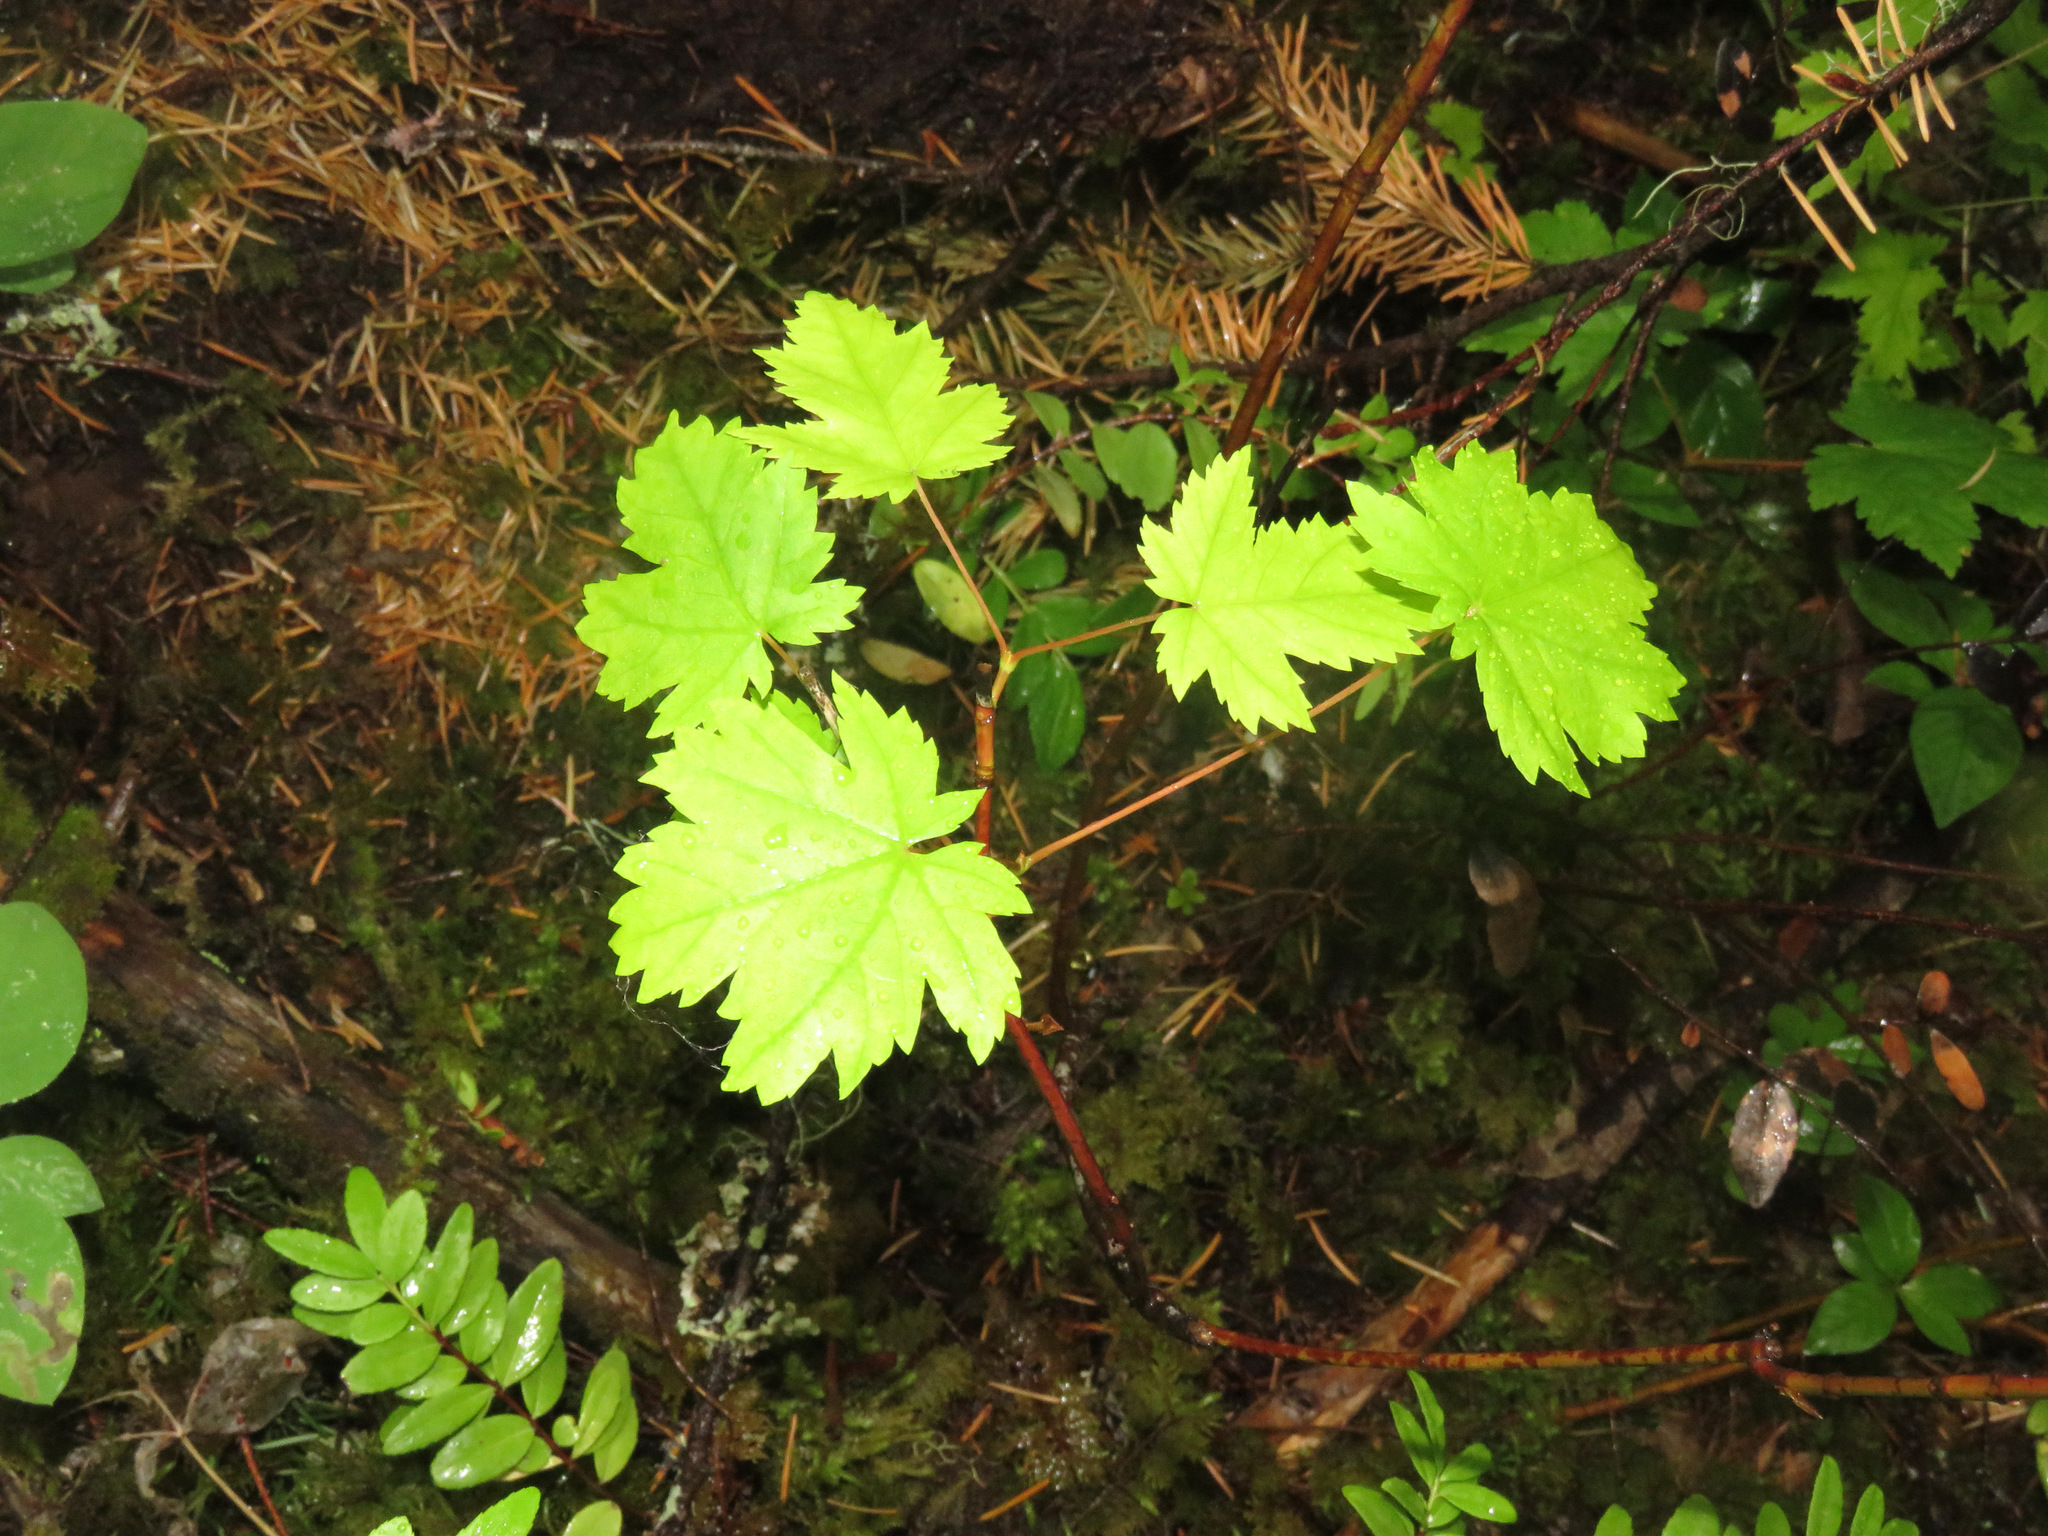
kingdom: Plantae
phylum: Tracheophyta
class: Magnoliopsida
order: Sapindales
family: Sapindaceae
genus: Acer
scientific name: Acer glabrum
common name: Rocky mountain maple
